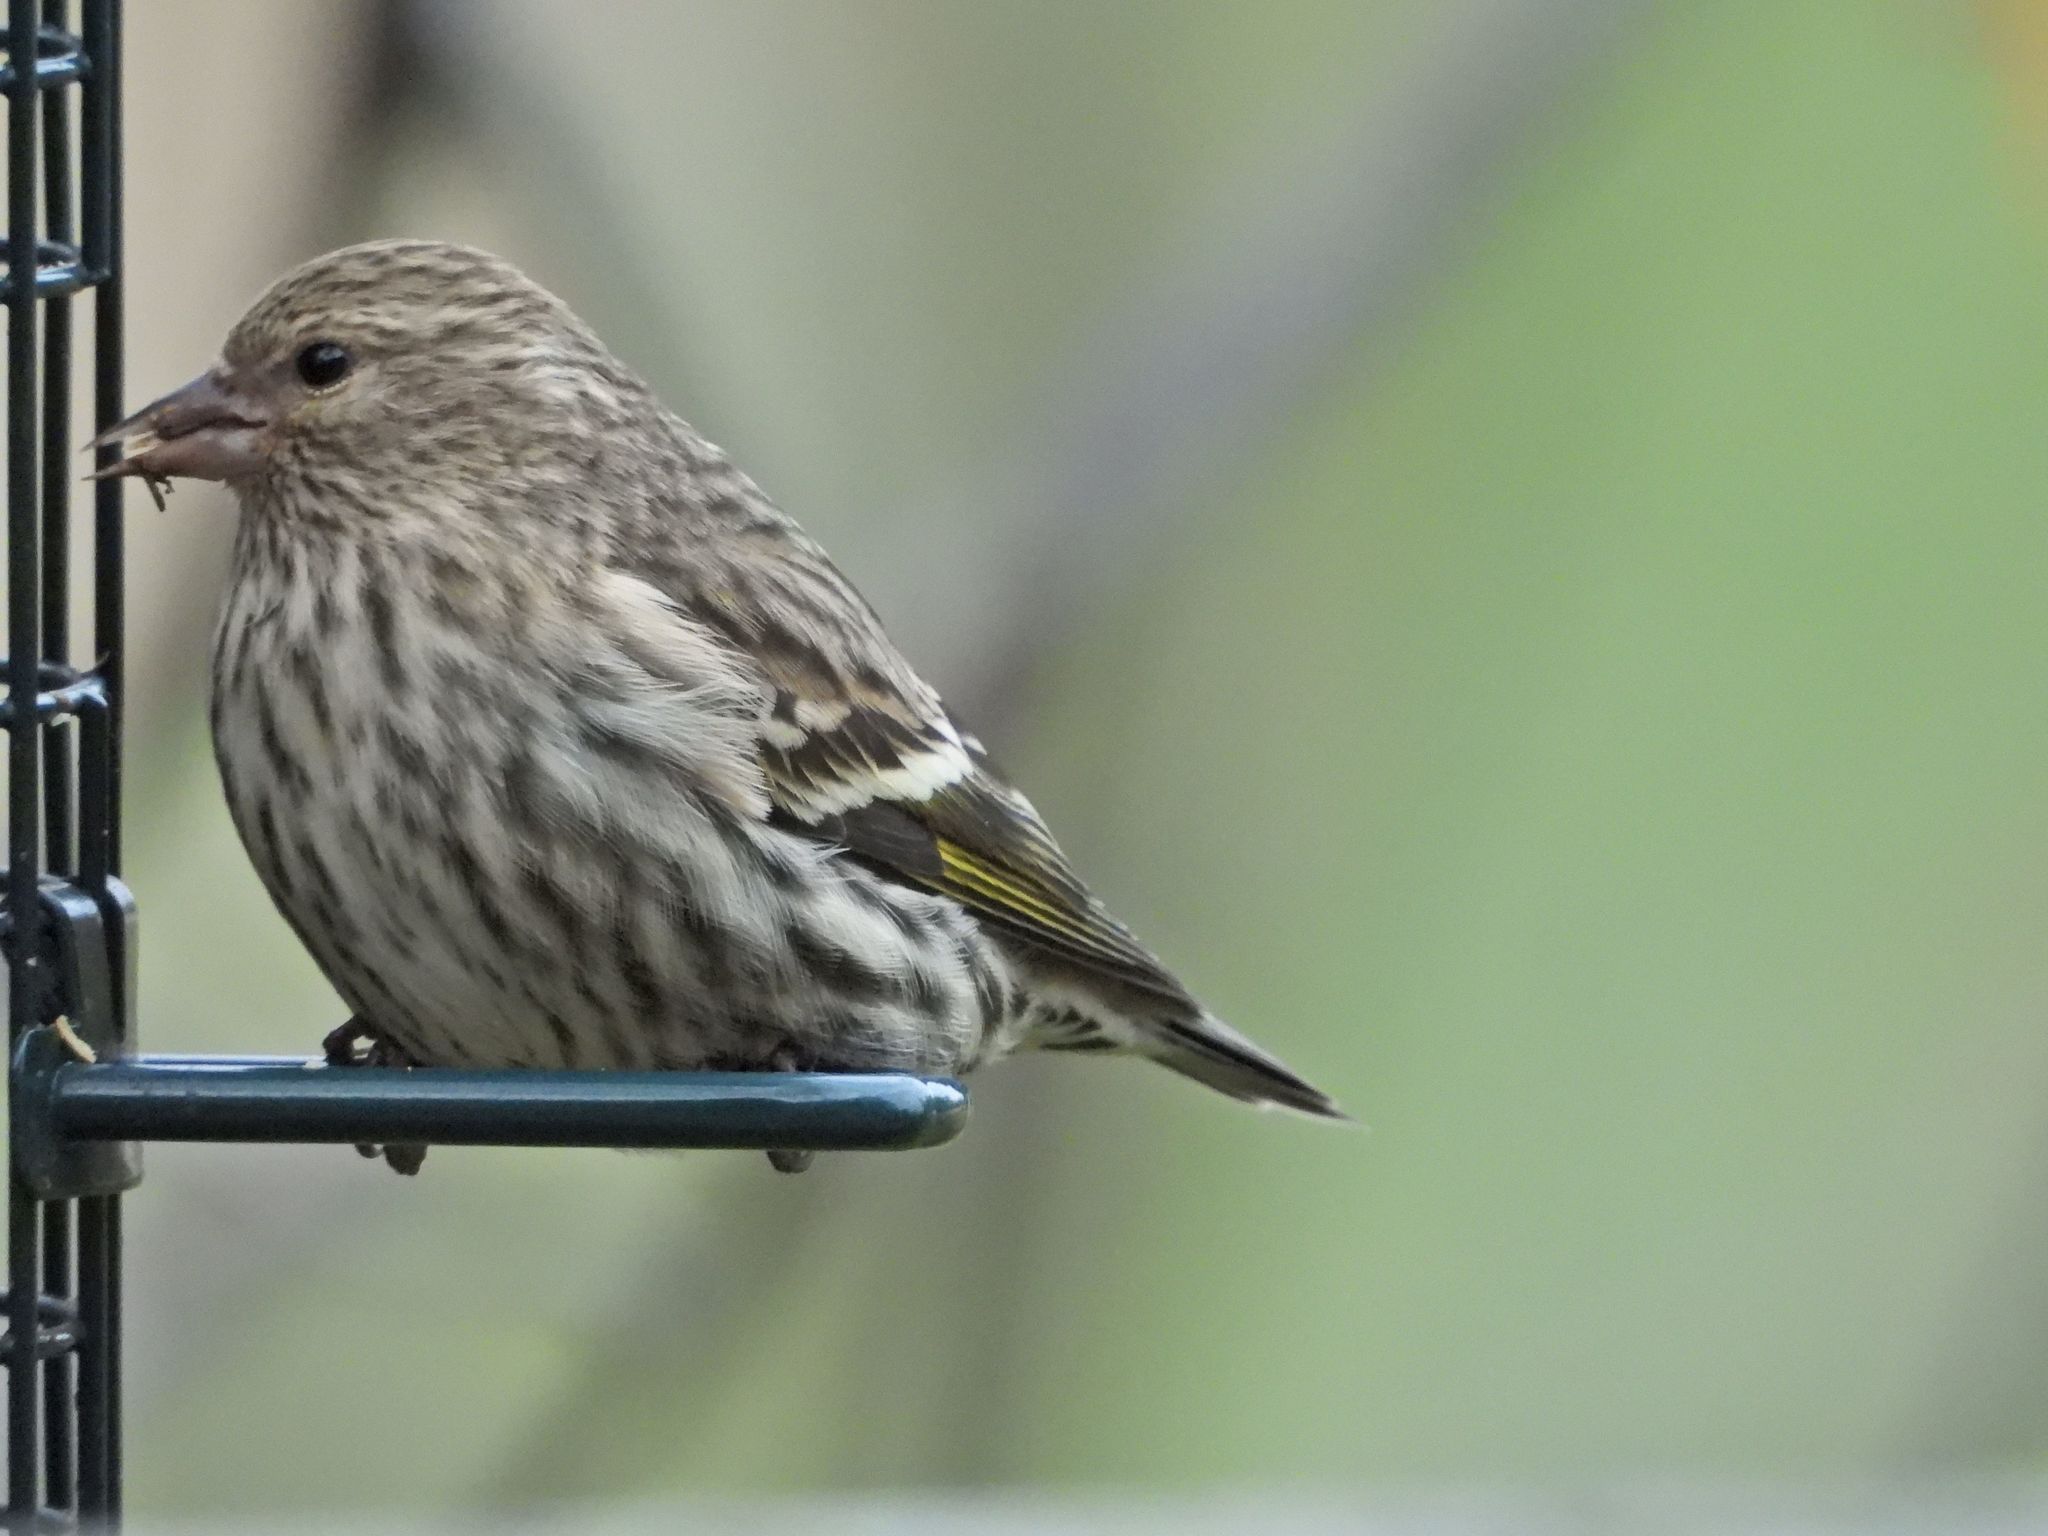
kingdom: Animalia
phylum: Chordata
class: Aves
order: Passeriformes
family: Fringillidae
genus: Spinus
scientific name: Spinus pinus
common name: Pine siskin
